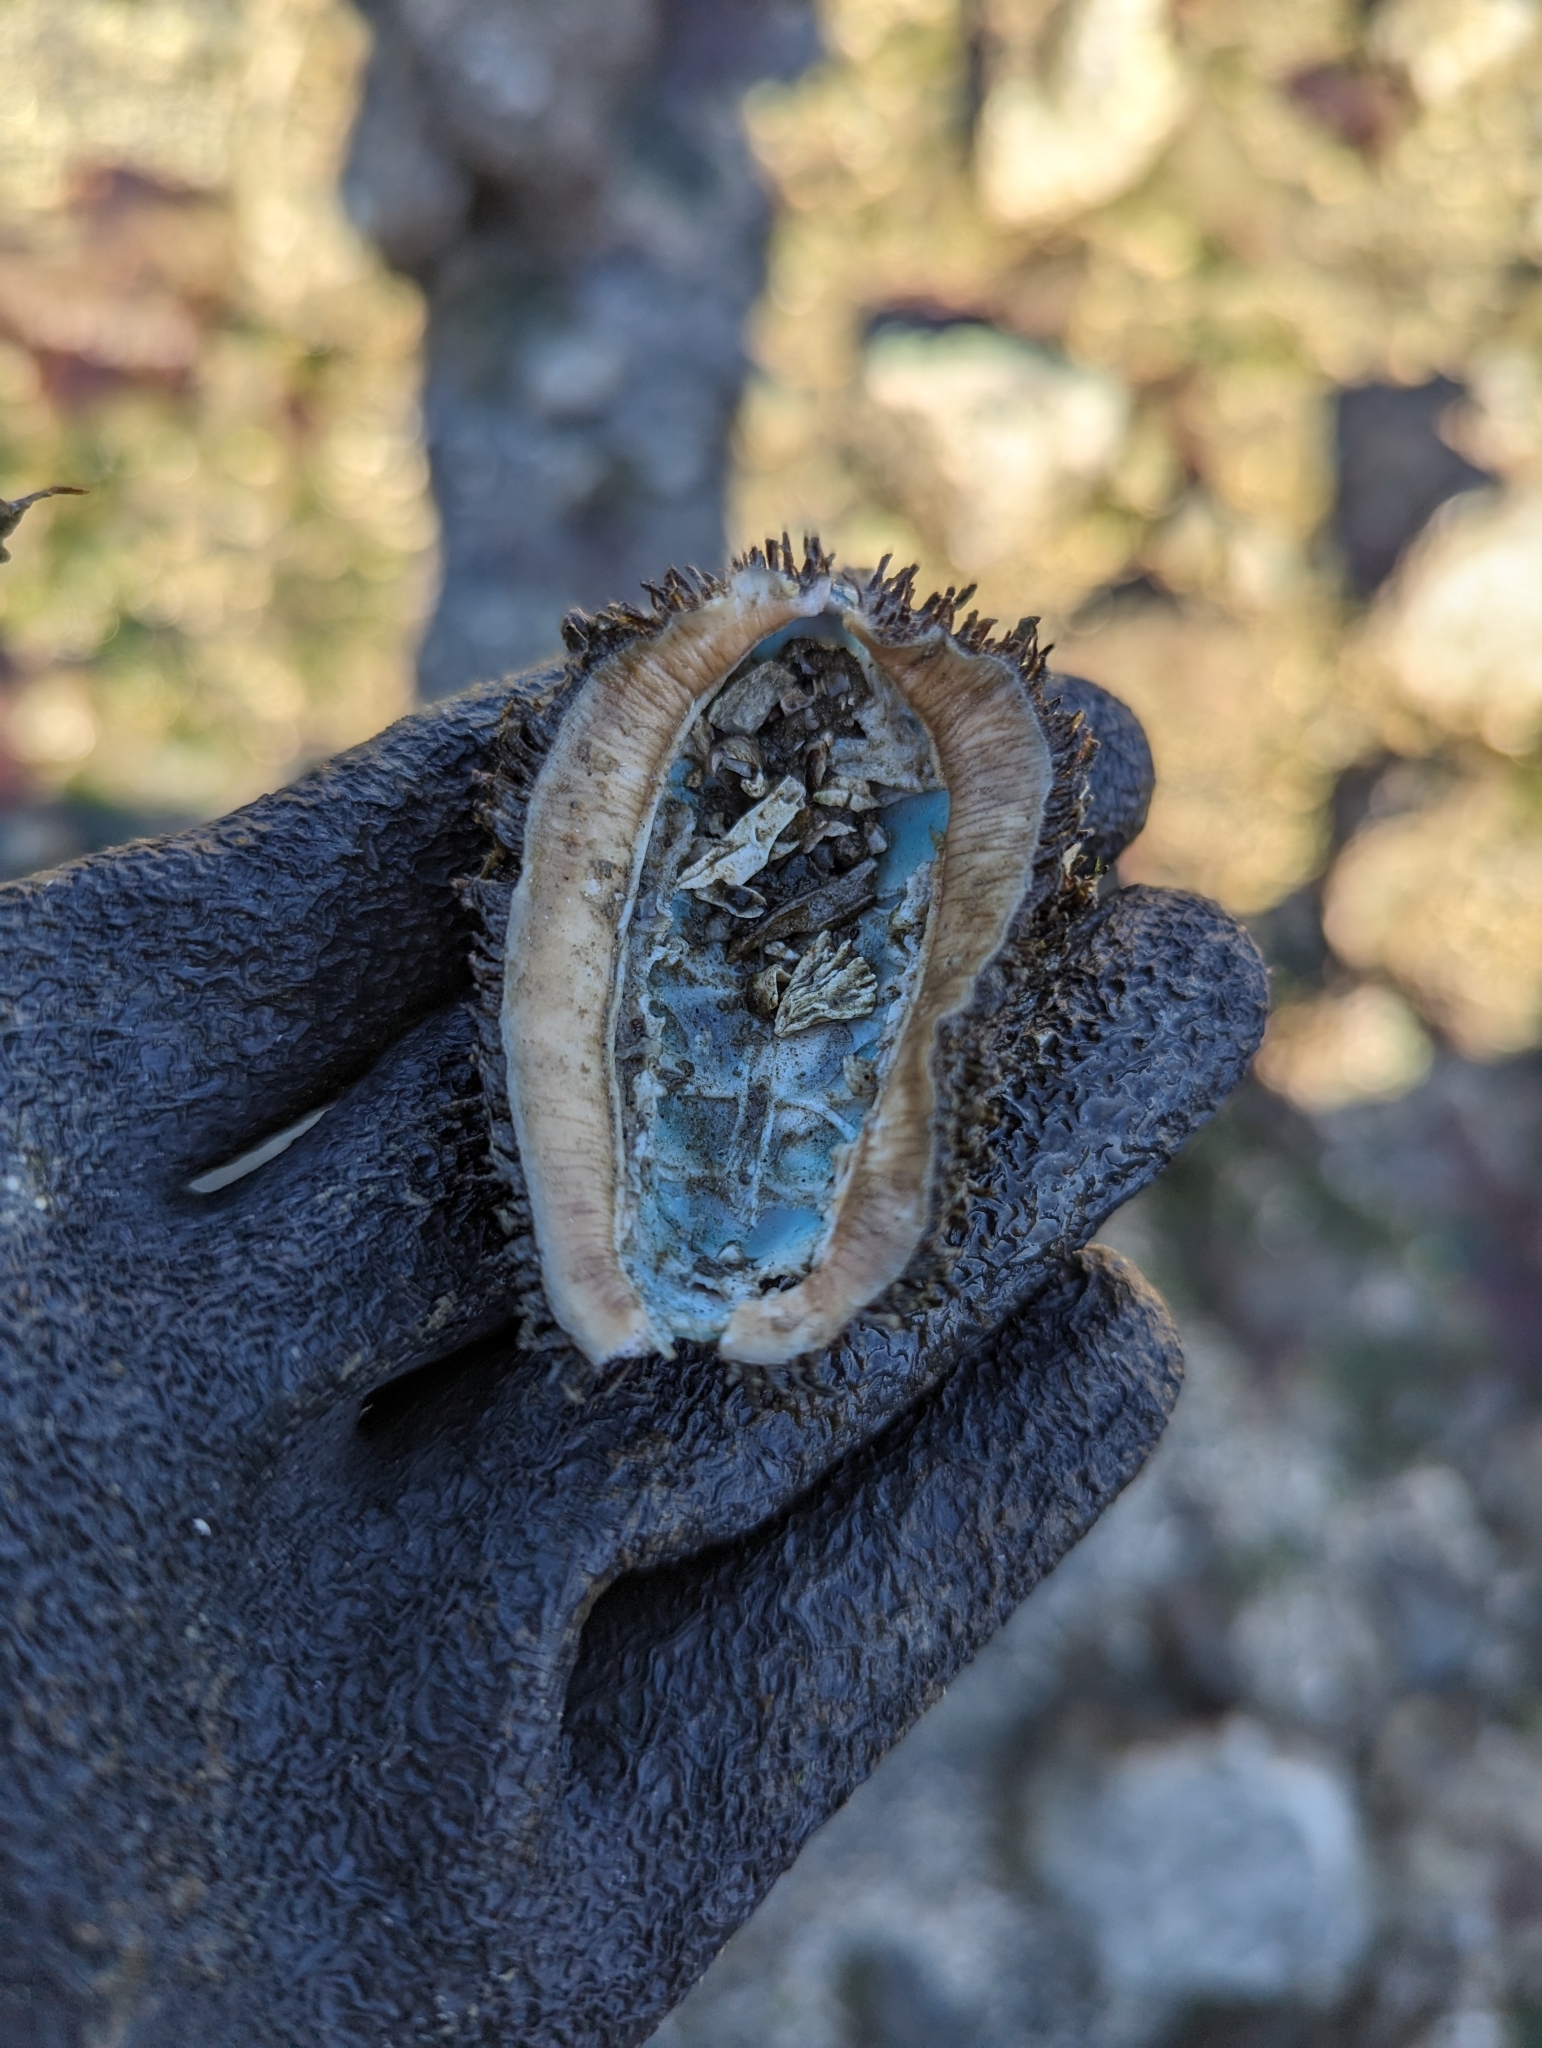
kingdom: Animalia
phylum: Mollusca
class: Polyplacophora
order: Chitonida
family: Mopaliidae
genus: Mopalia
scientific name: Mopalia muscosa
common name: Mossy chiton
